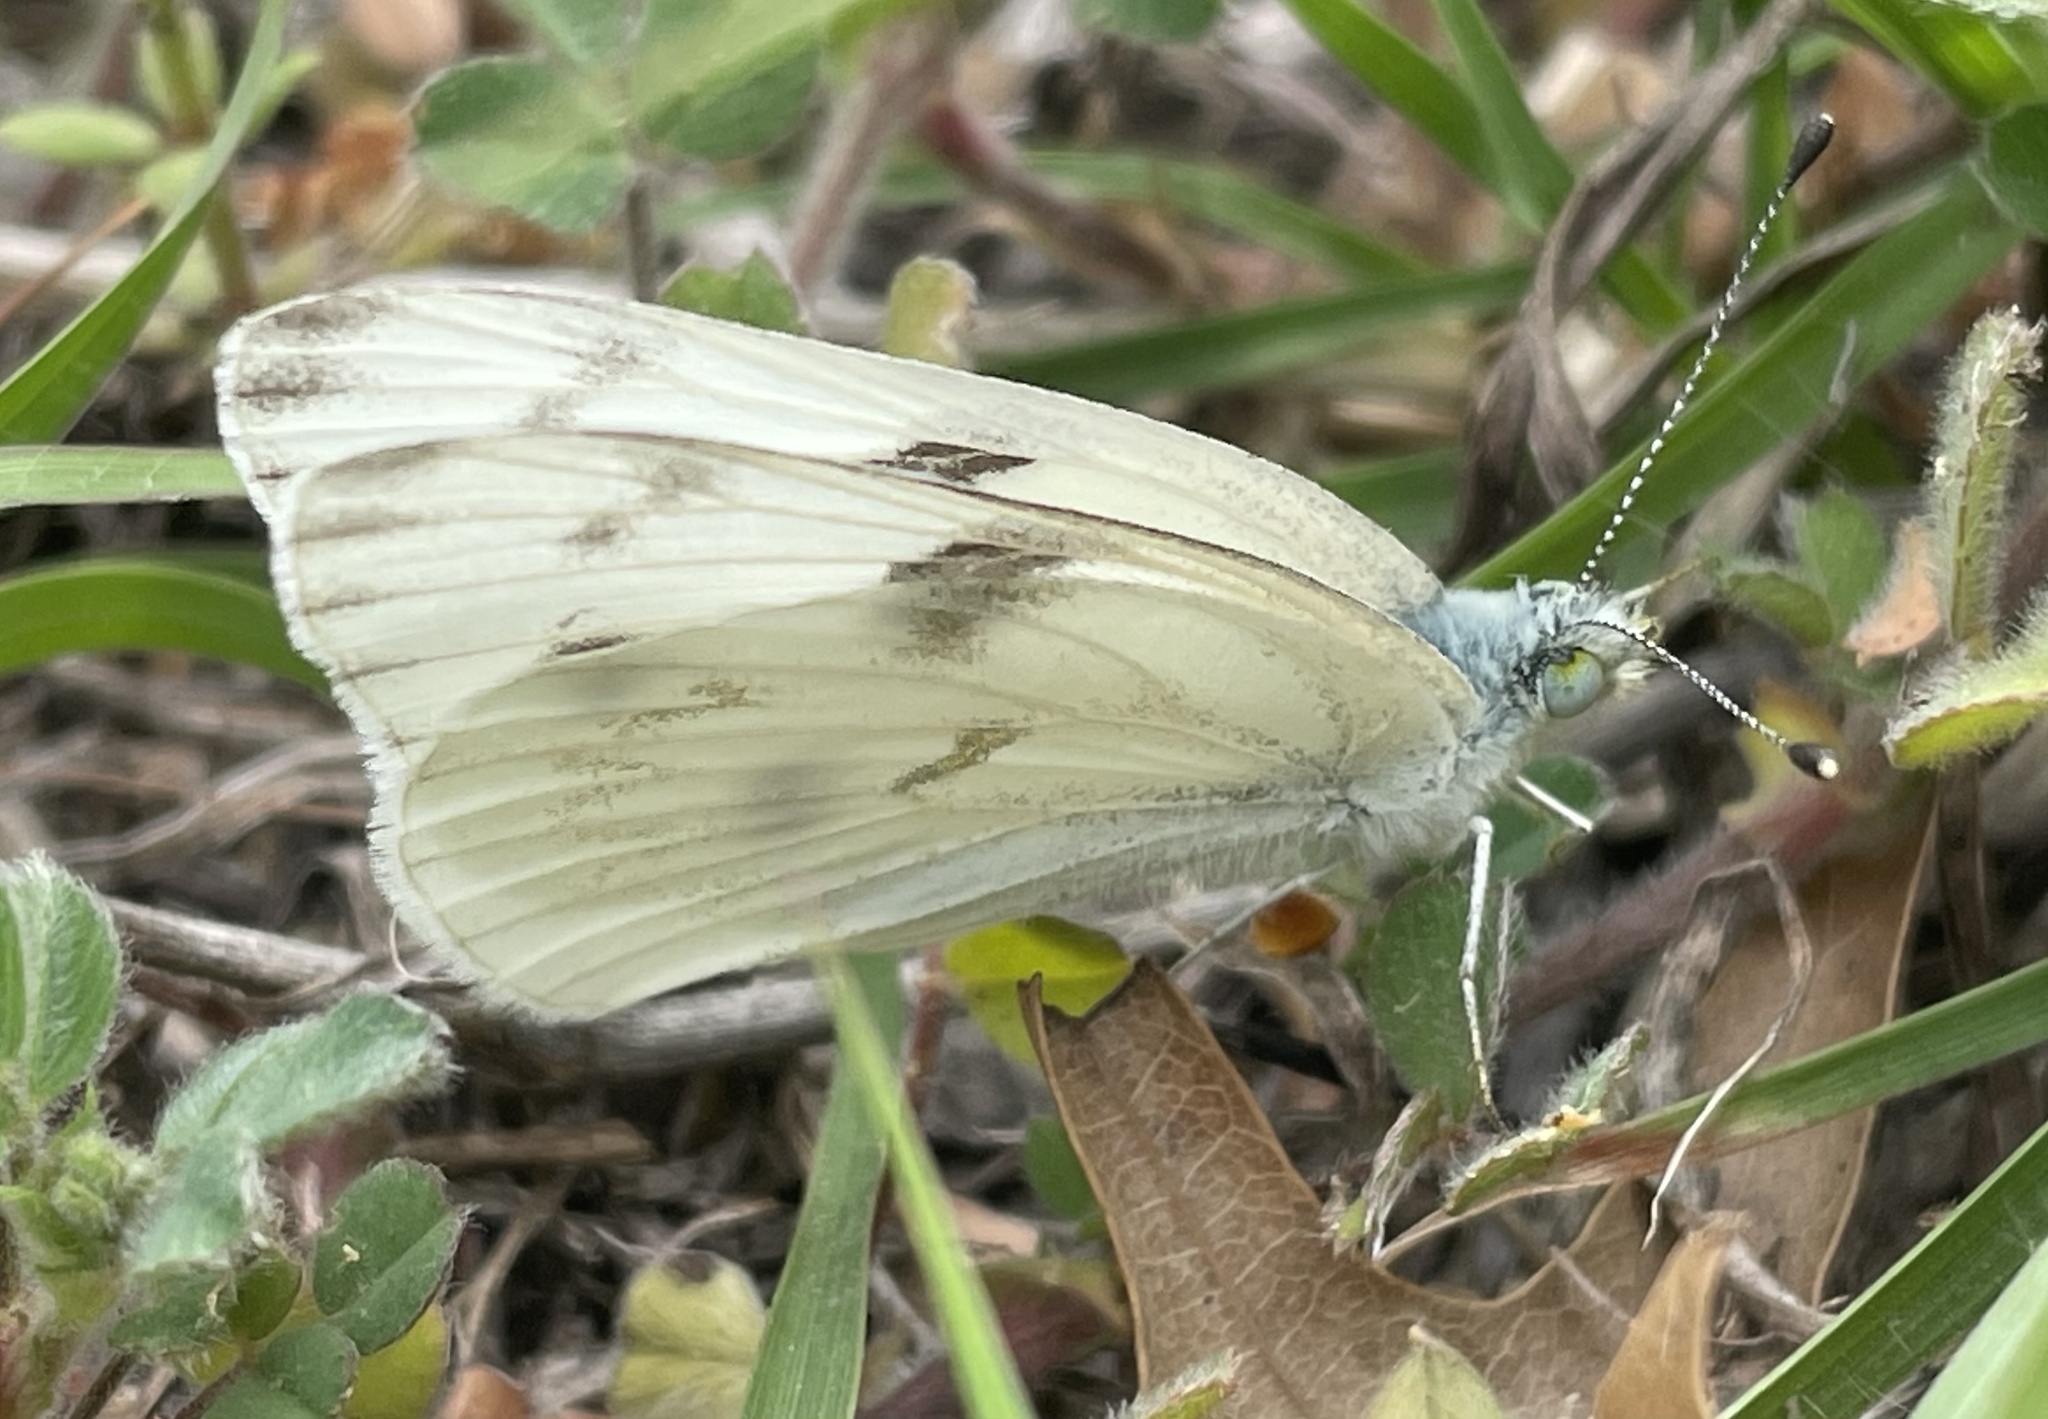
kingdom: Animalia
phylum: Arthropoda
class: Insecta
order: Lepidoptera
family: Pieridae
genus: Pontia
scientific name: Pontia protodice
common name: Checkered white
